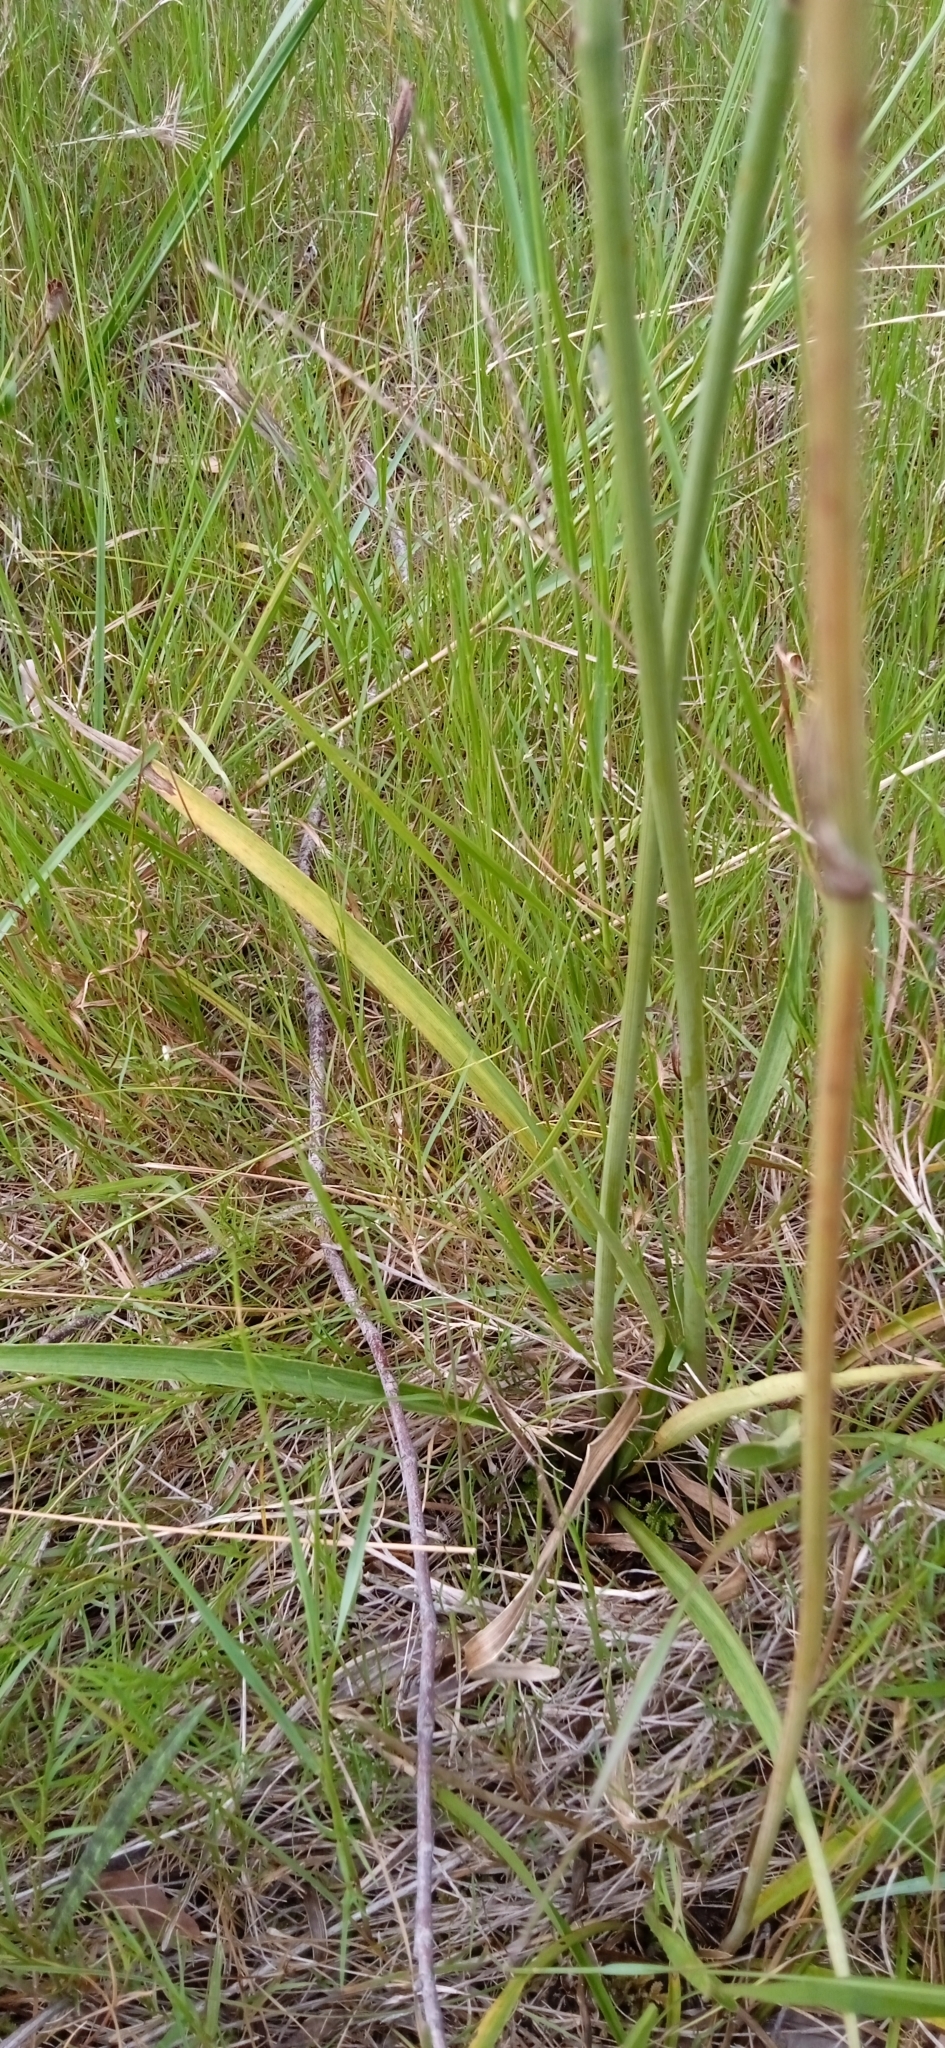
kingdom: Plantae
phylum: Tracheophyta
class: Magnoliopsida
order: Apiales
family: Apiaceae
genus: Eryngium
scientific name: Eryngium sanguisorba
